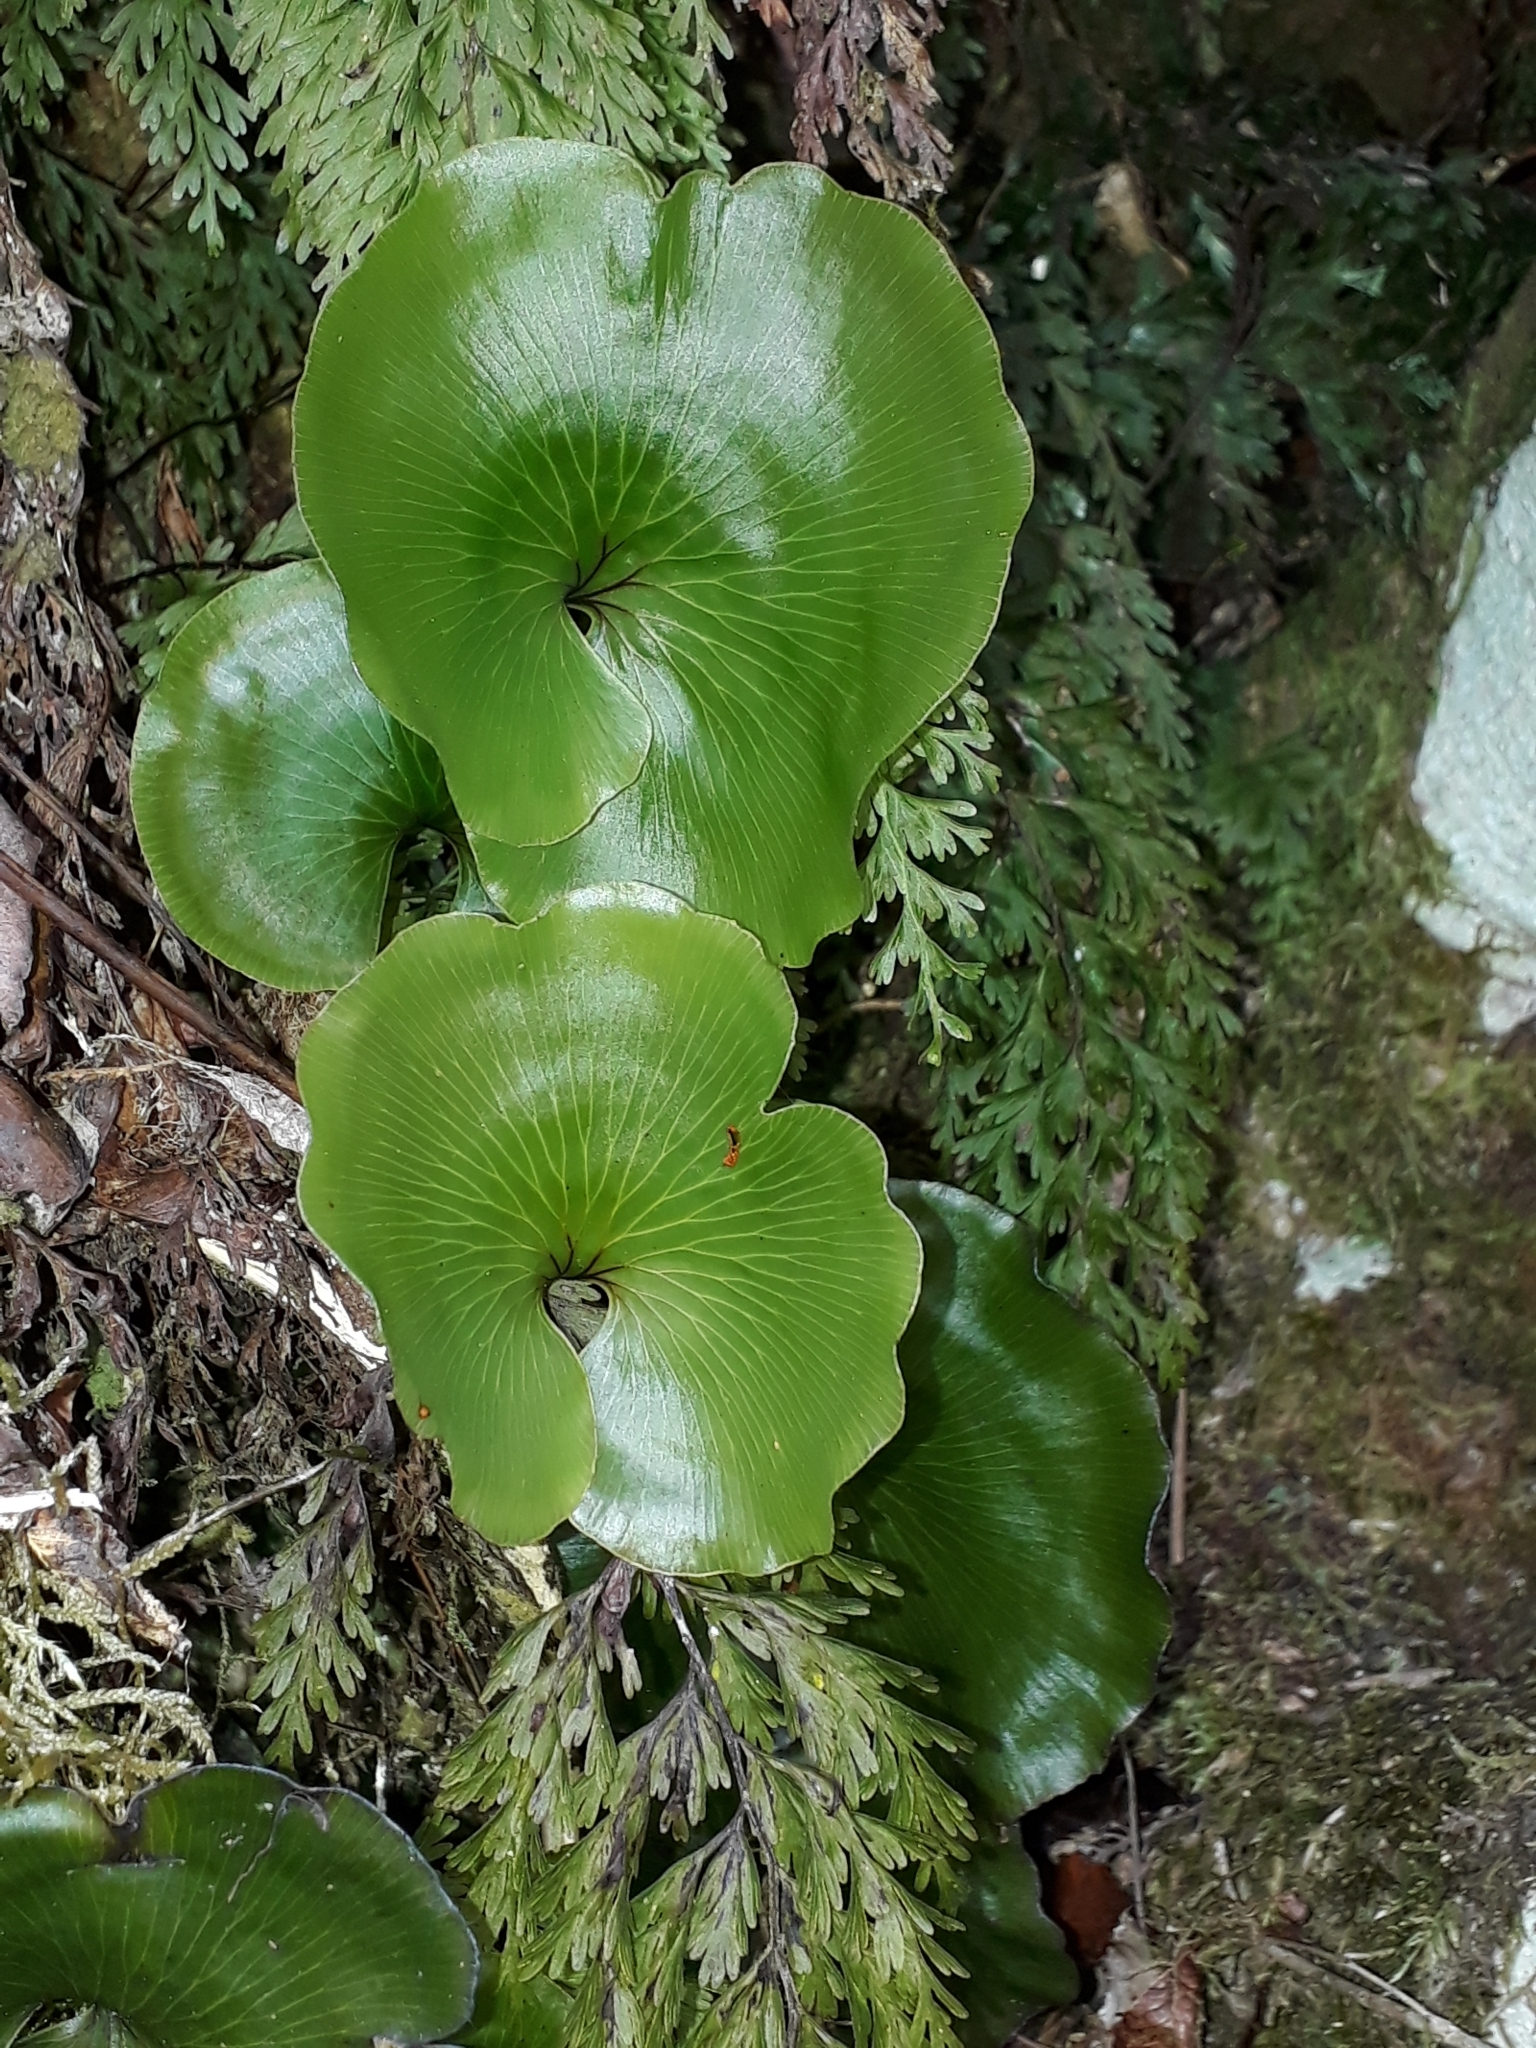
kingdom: Plantae
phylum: Tracheophyta
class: Polypodiopsida
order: Hymenophyllales
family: Hymenophyllaceae
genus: Hymenophyllum
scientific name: Hymenophyllum nephrophyllum
